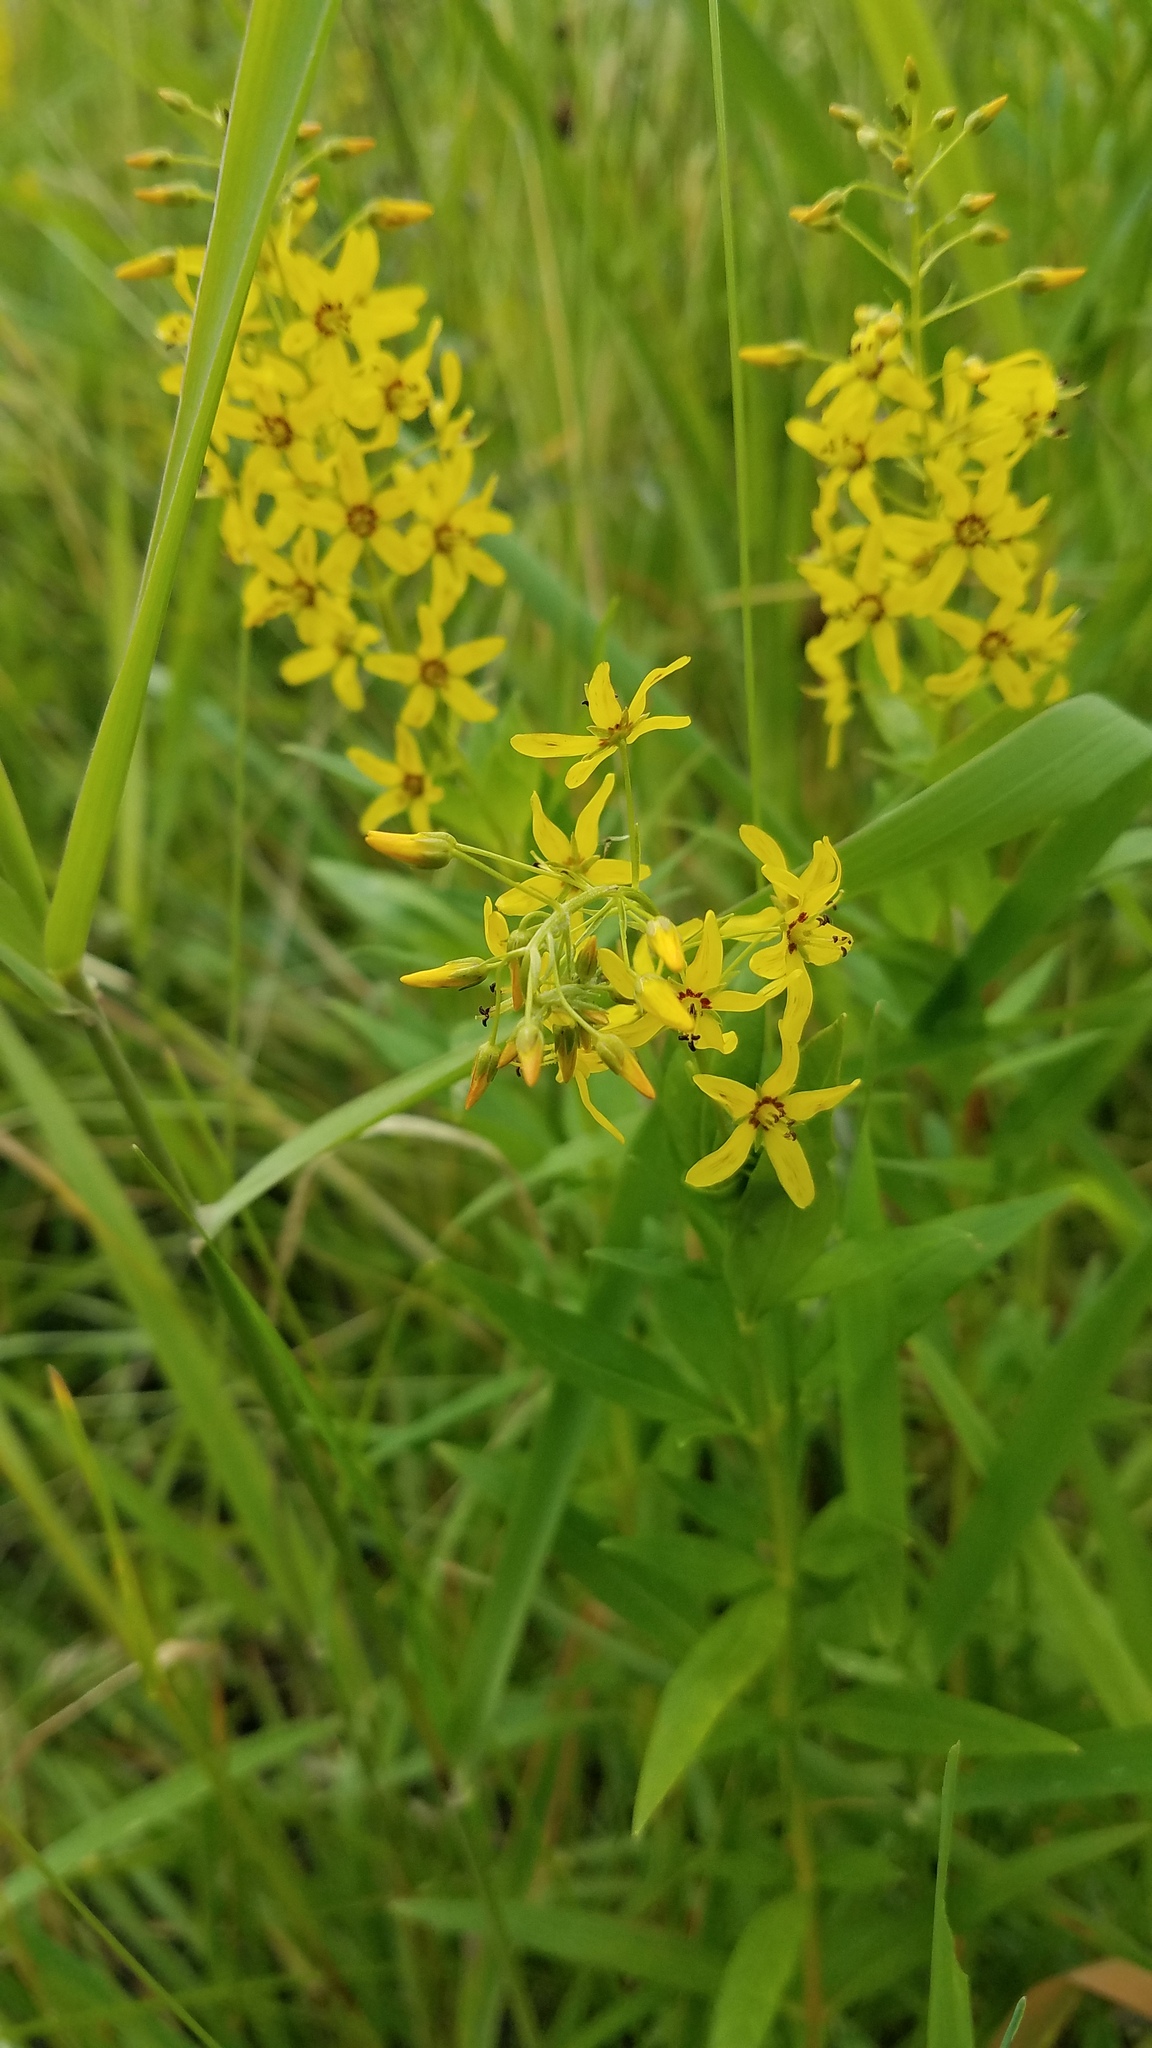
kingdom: Plantae
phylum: Tracheophyta
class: Magnoliopsida
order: Ericales
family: Primulaceae
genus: Lysimachia
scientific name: Lysimachia terrestris
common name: Lake loosestrife
